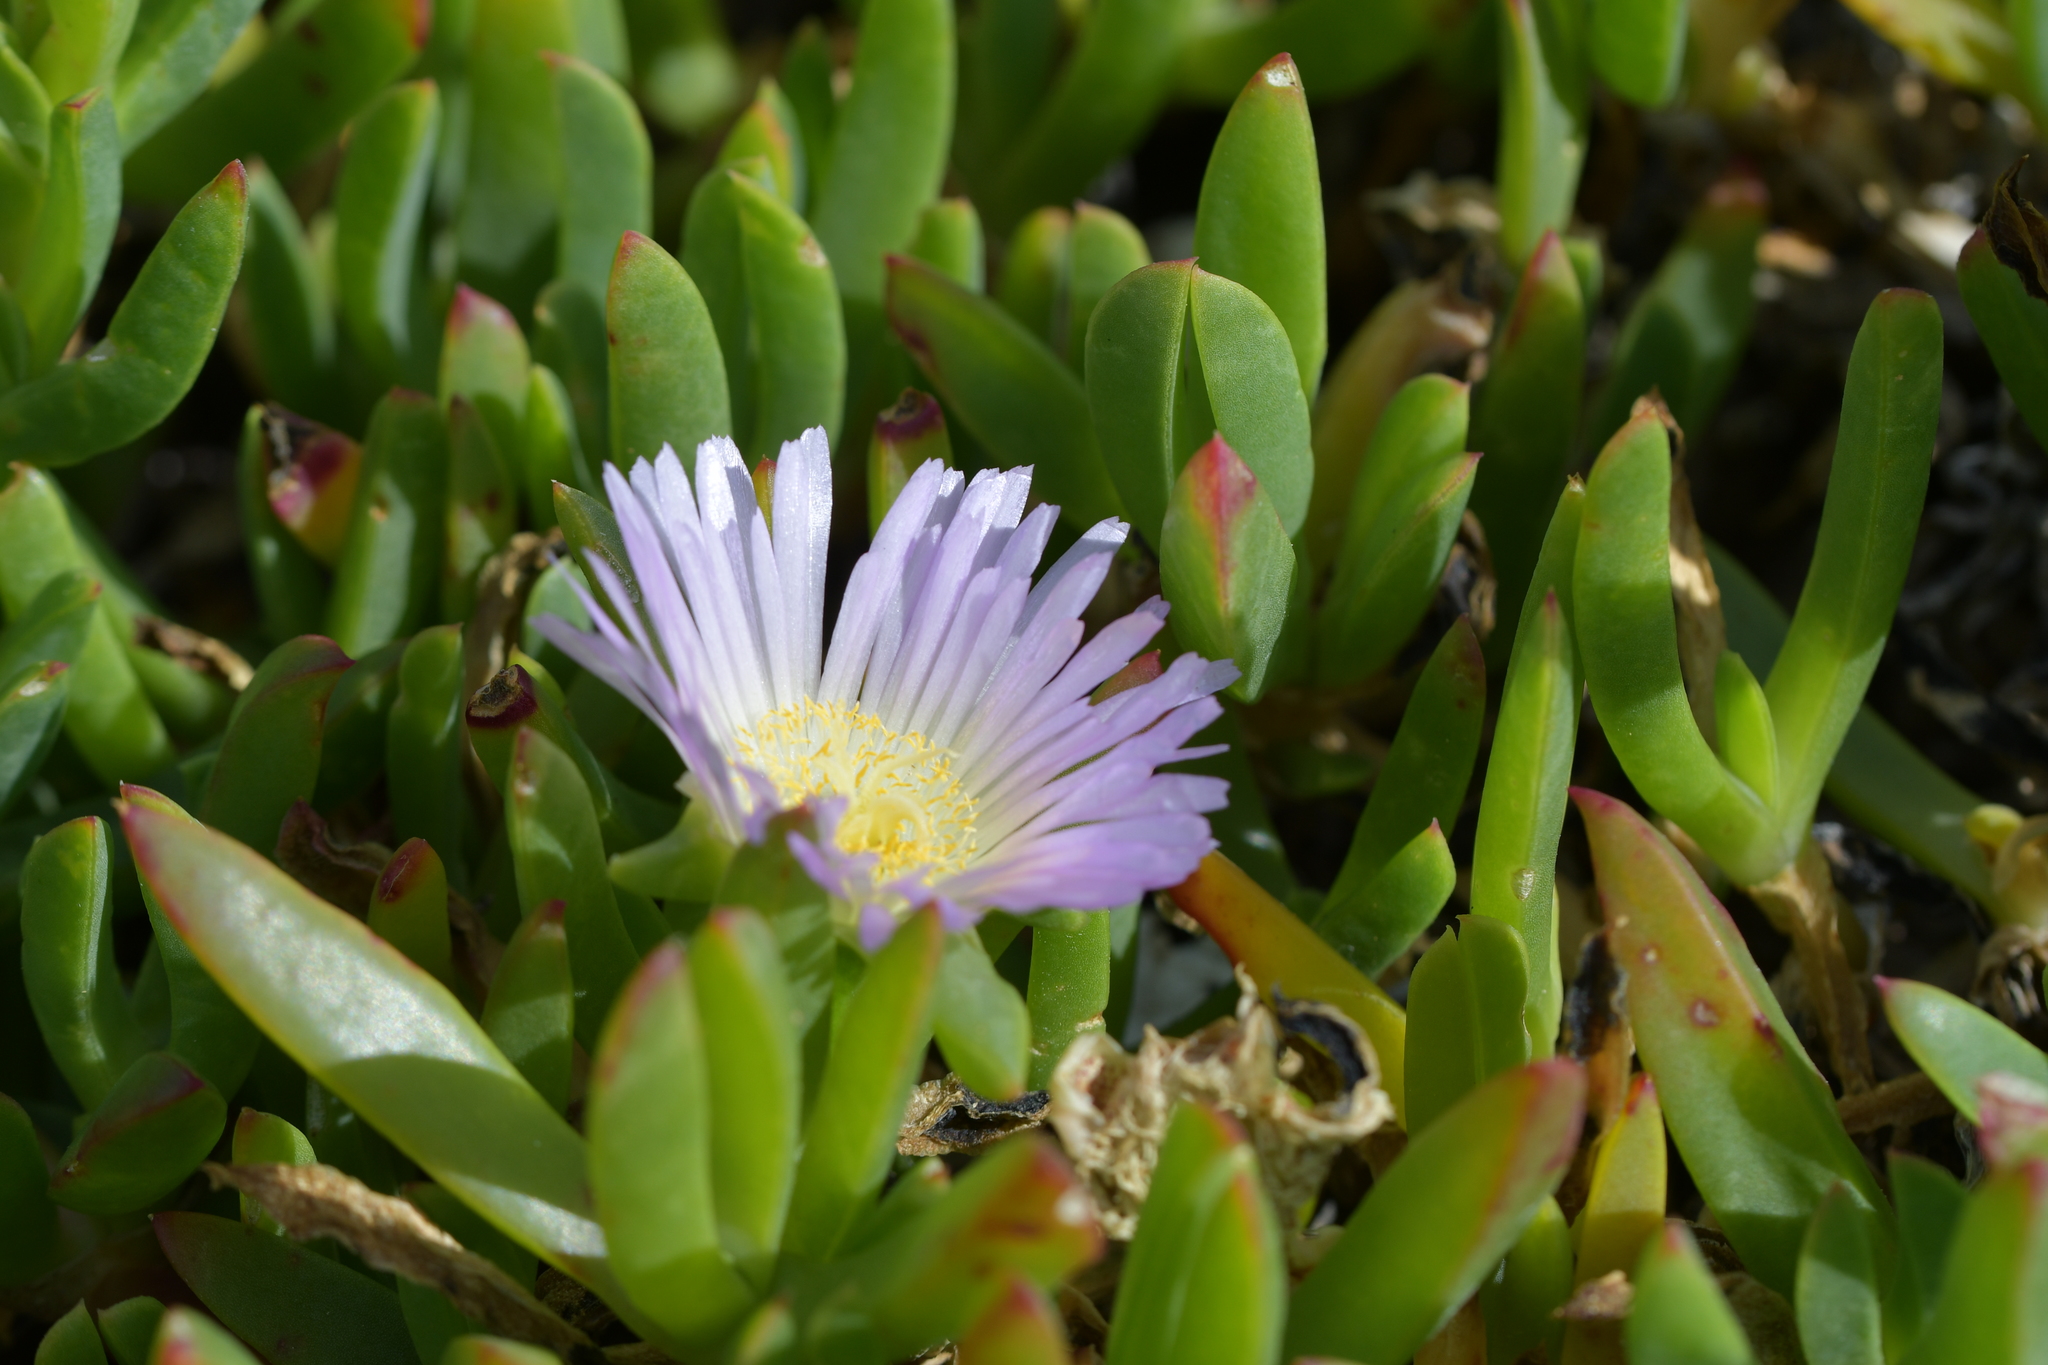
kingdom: Plantae
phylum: Tracheophyta
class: Magnoliopsida
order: Caryophyllales
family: Aizoaceae
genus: Disphyma
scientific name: Disphyma australe
